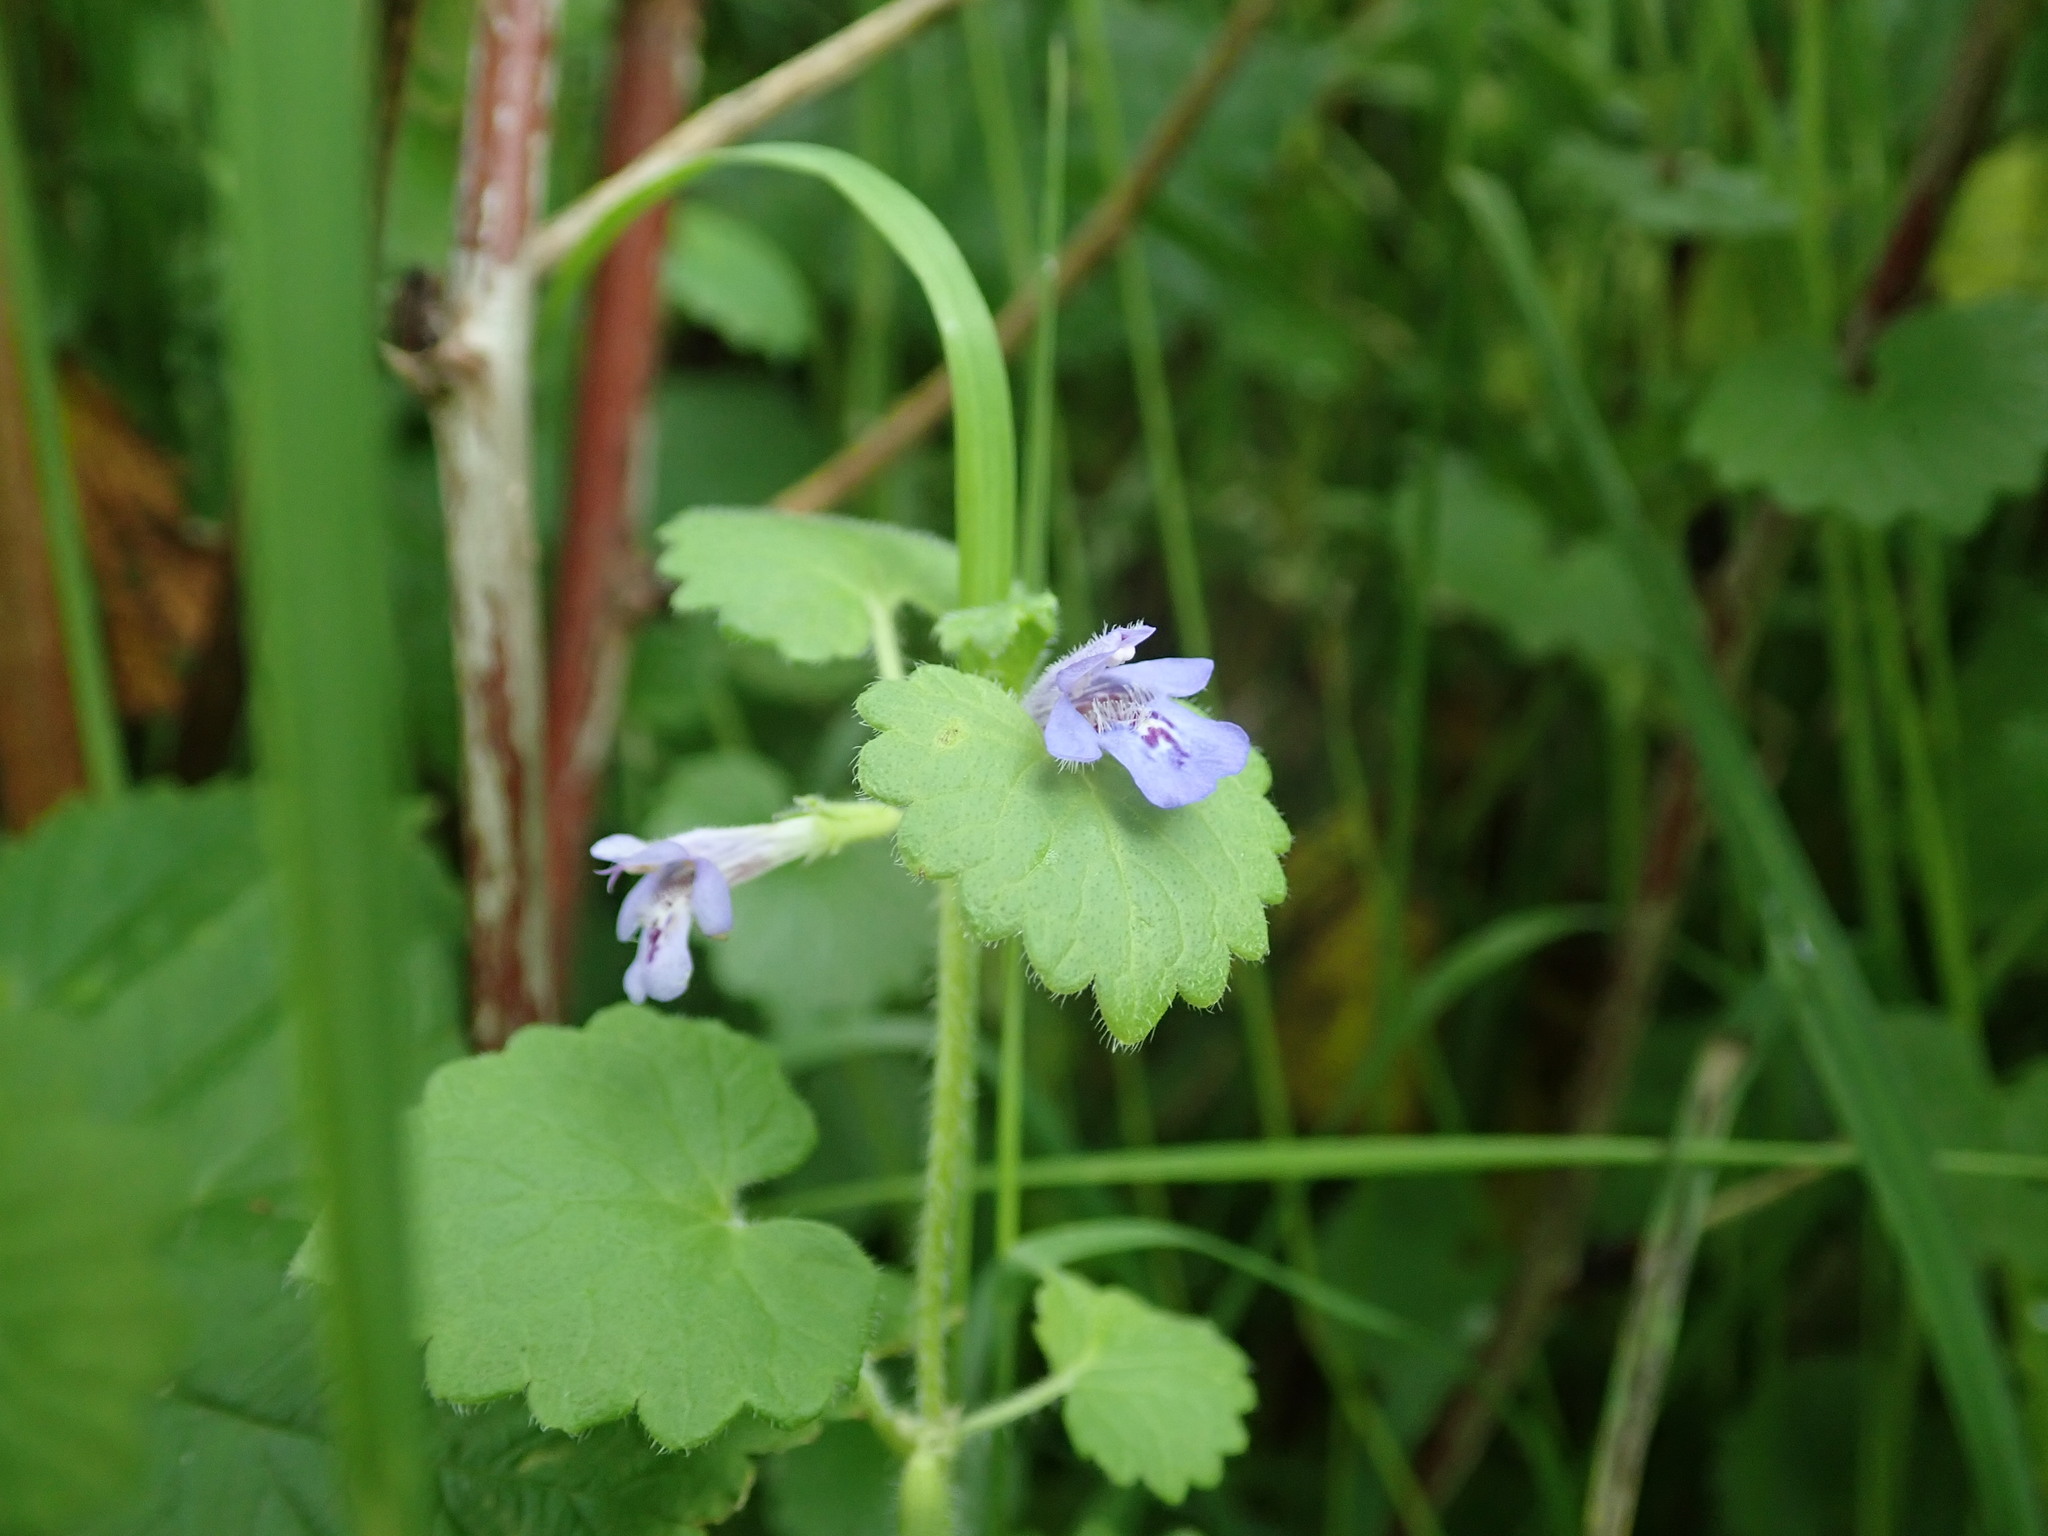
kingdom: Plantae
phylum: Tracheophyta
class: Magnoliopsida
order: Lamiales
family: Lamiaceae
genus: Glechoma
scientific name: Glechoma hederacea
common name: Ground ivy
